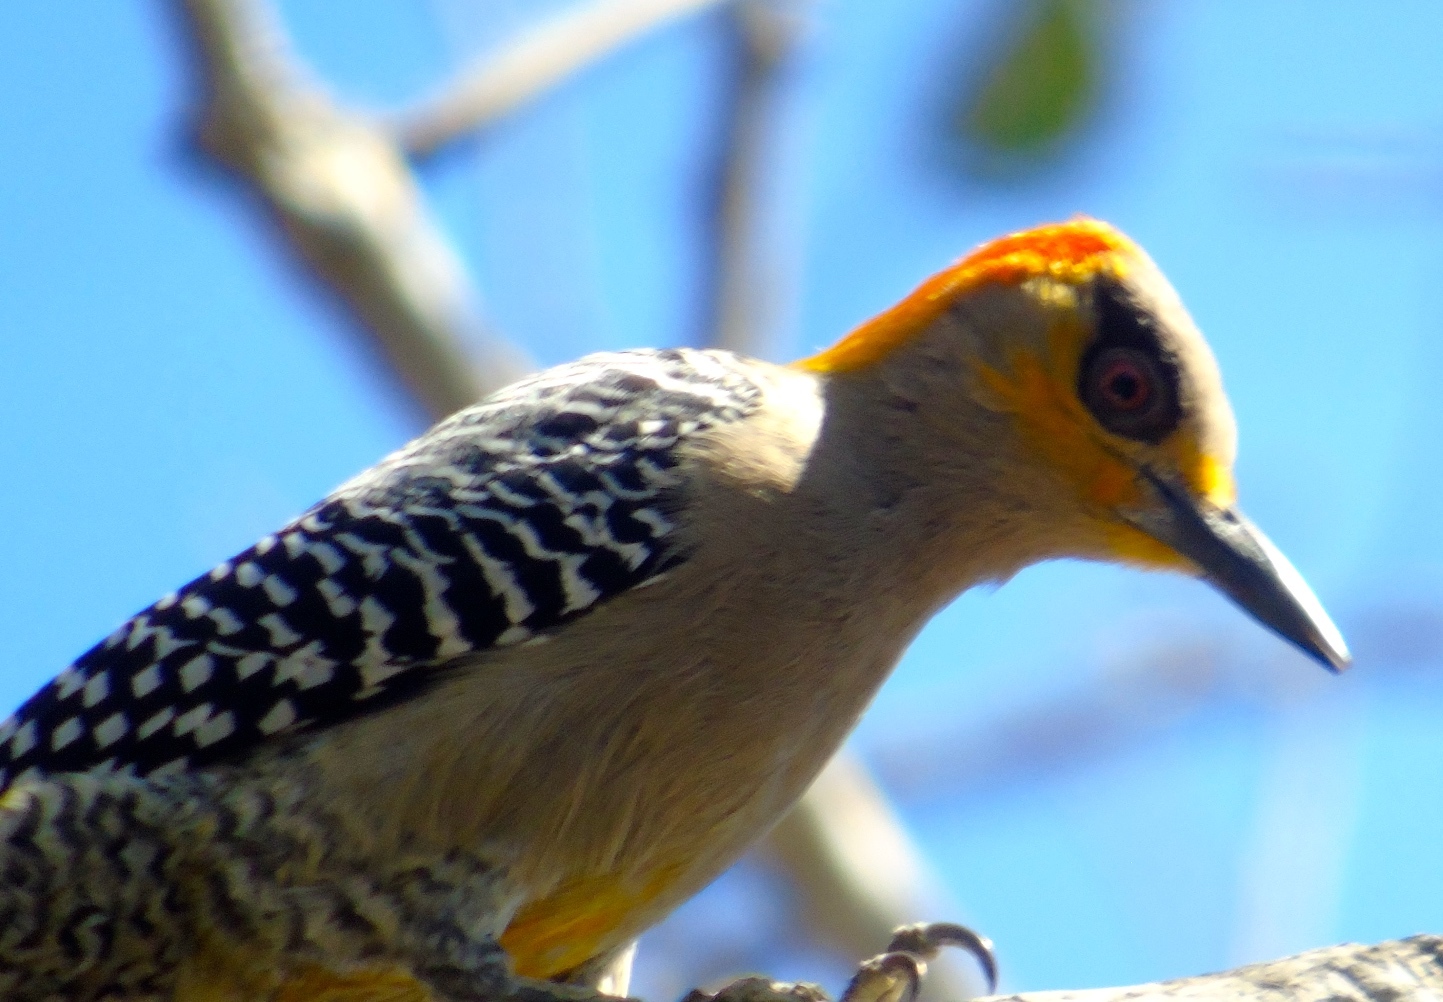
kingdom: Animalia
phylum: Chordata
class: Aves
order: Piciformes
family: Picidae
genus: Melanerpes
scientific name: Melanerpes chrysogenys
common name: Golden-cheeked woodpecker
